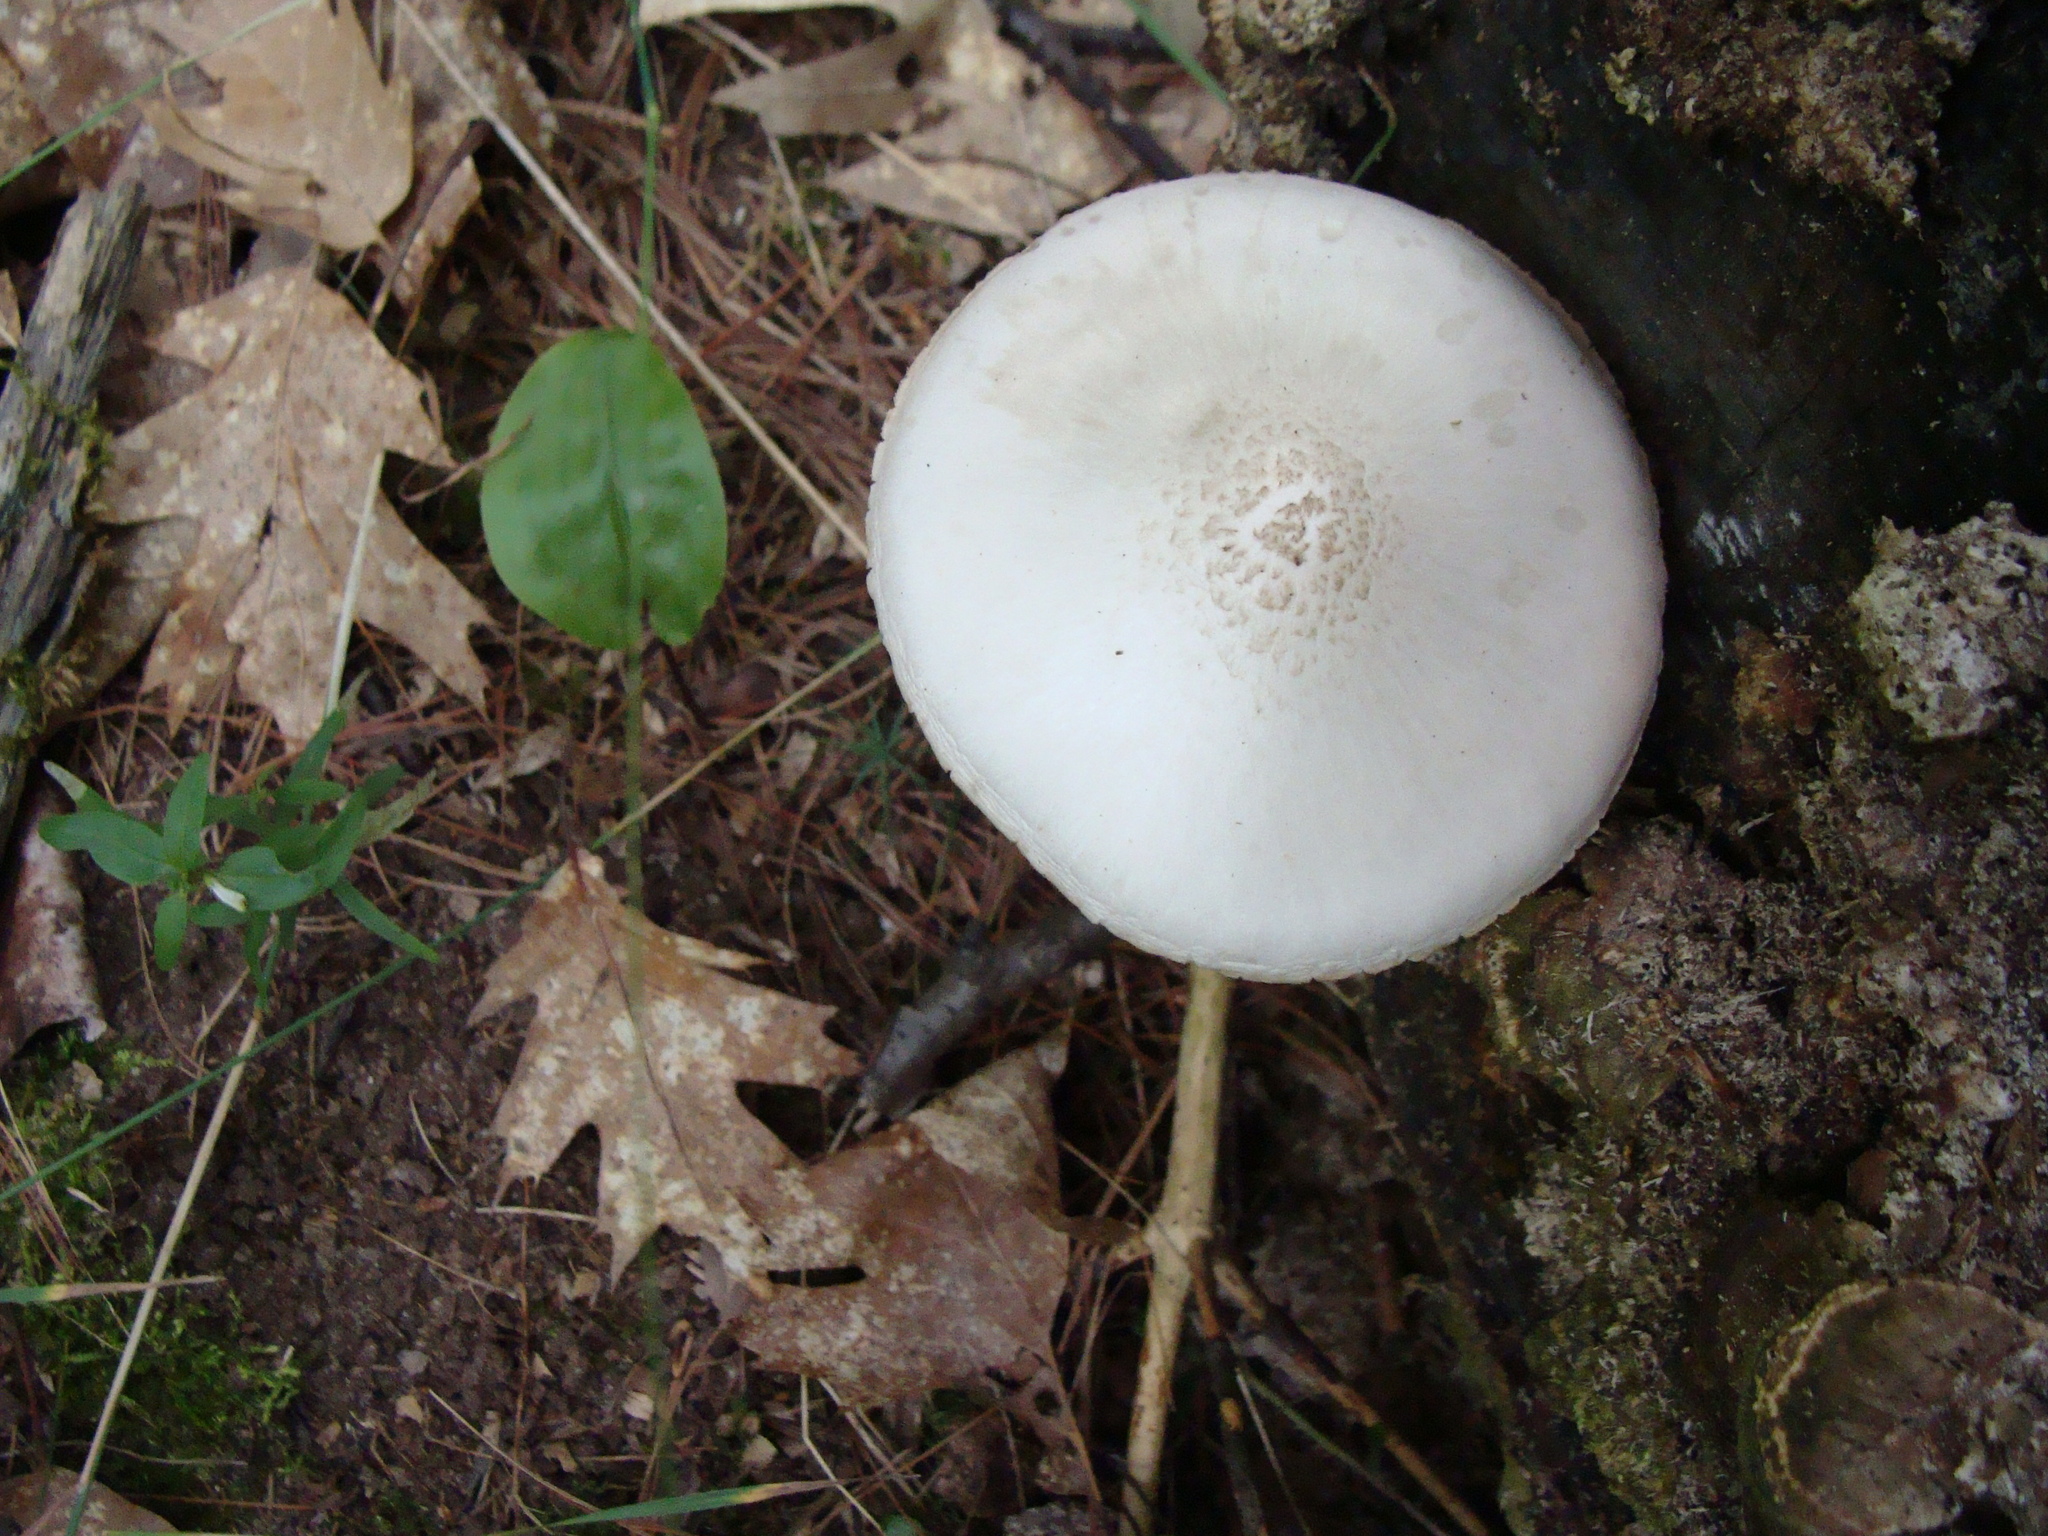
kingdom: Fungi
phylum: Basidiomycota
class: Agaricomycetes
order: Agaricales
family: Pluteaceae
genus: Pluteus
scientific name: Pluteus petasatus
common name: Scaly shield
